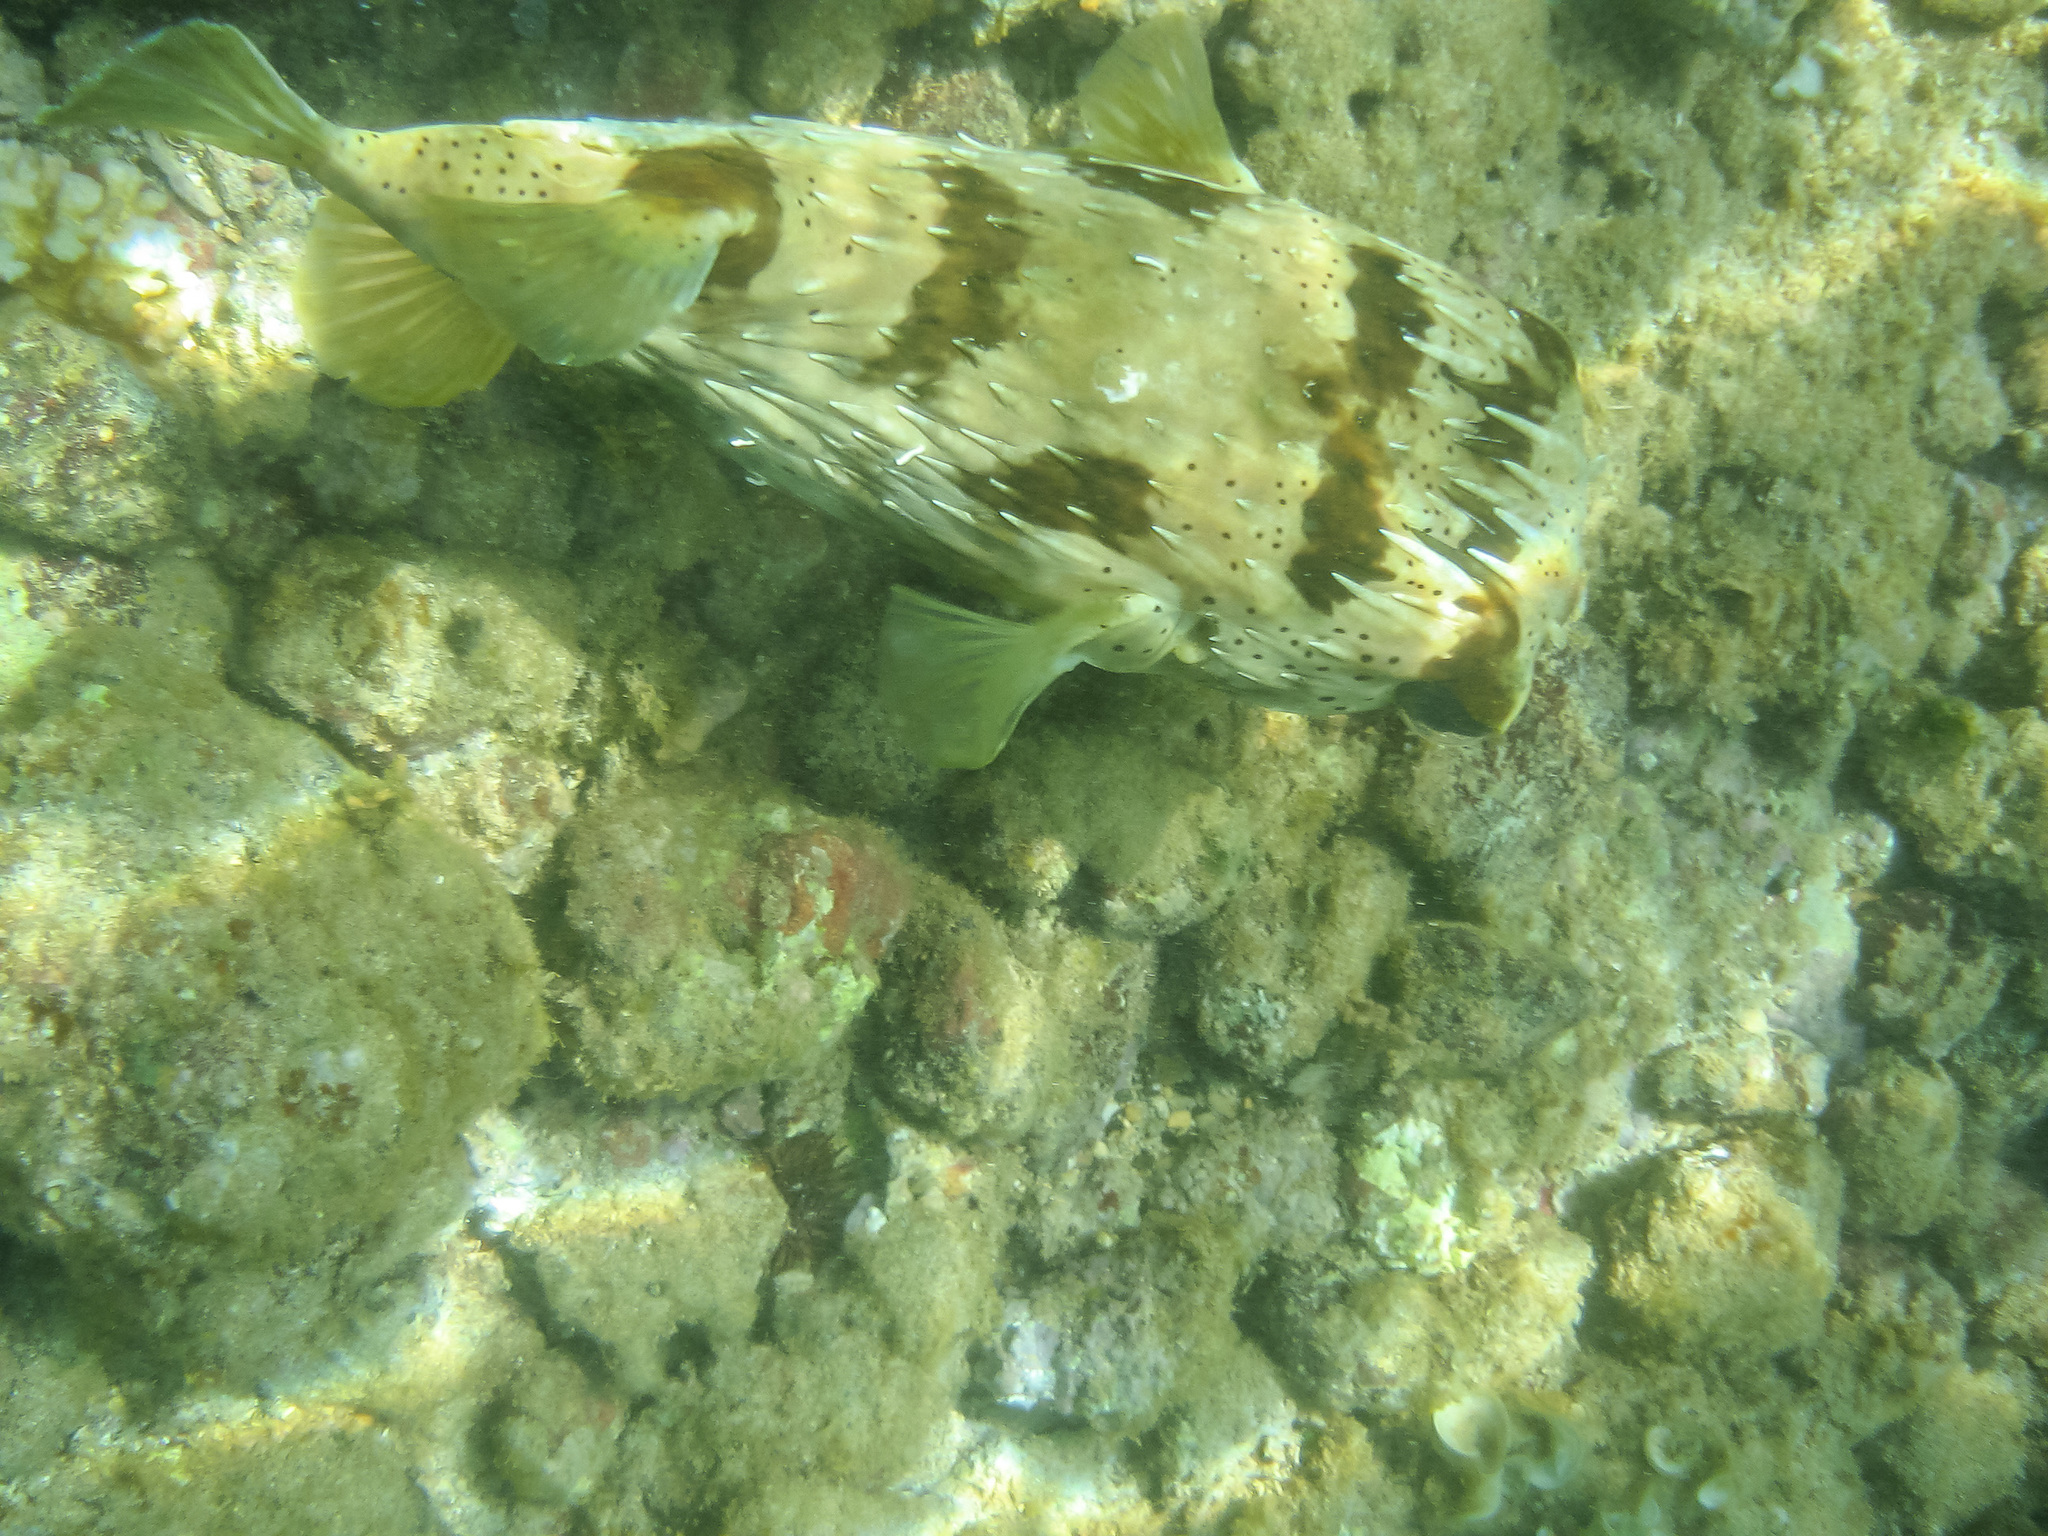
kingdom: Animalia
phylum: Chordata
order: Tetraodontiformes
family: Diodontidae
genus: Diodon
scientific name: Diodon holocanthus
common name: Balloonfish
